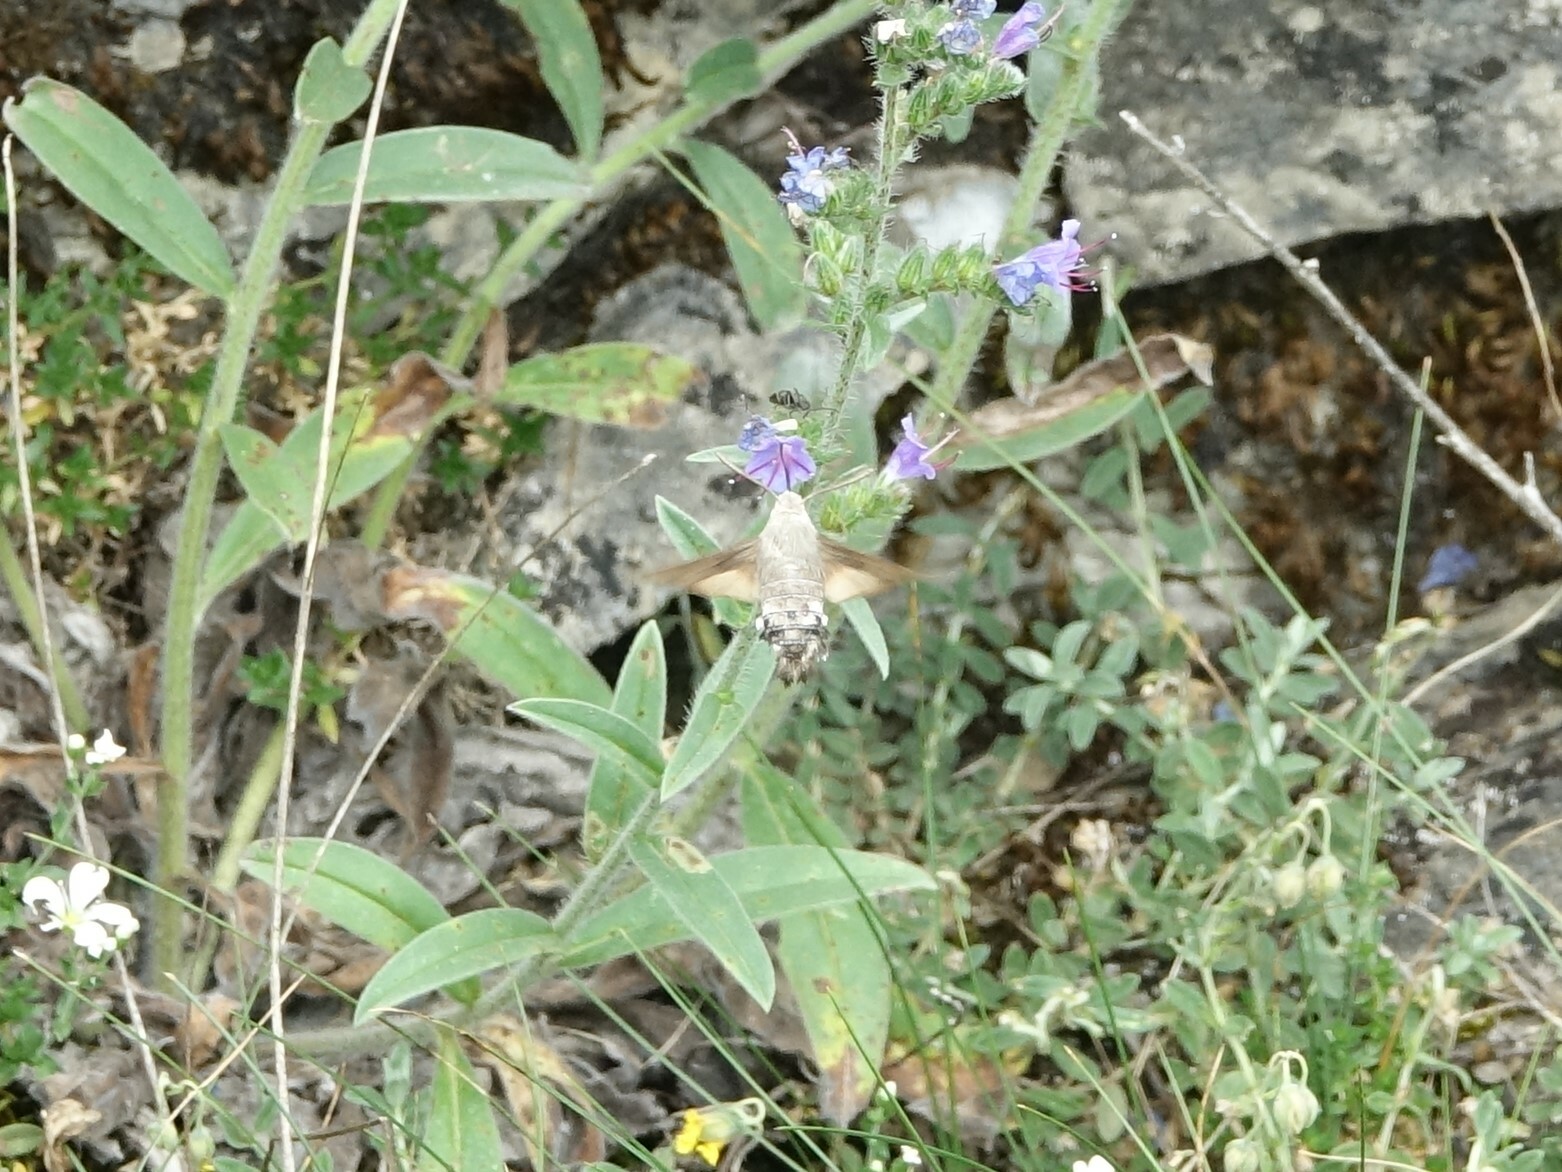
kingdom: Animalia
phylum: Arthropoda
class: Insecta
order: Lepidoptera
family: Sphingidae
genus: Macroglossum
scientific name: Macroglossum stellatarum
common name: Humming-bird hawk-moth
